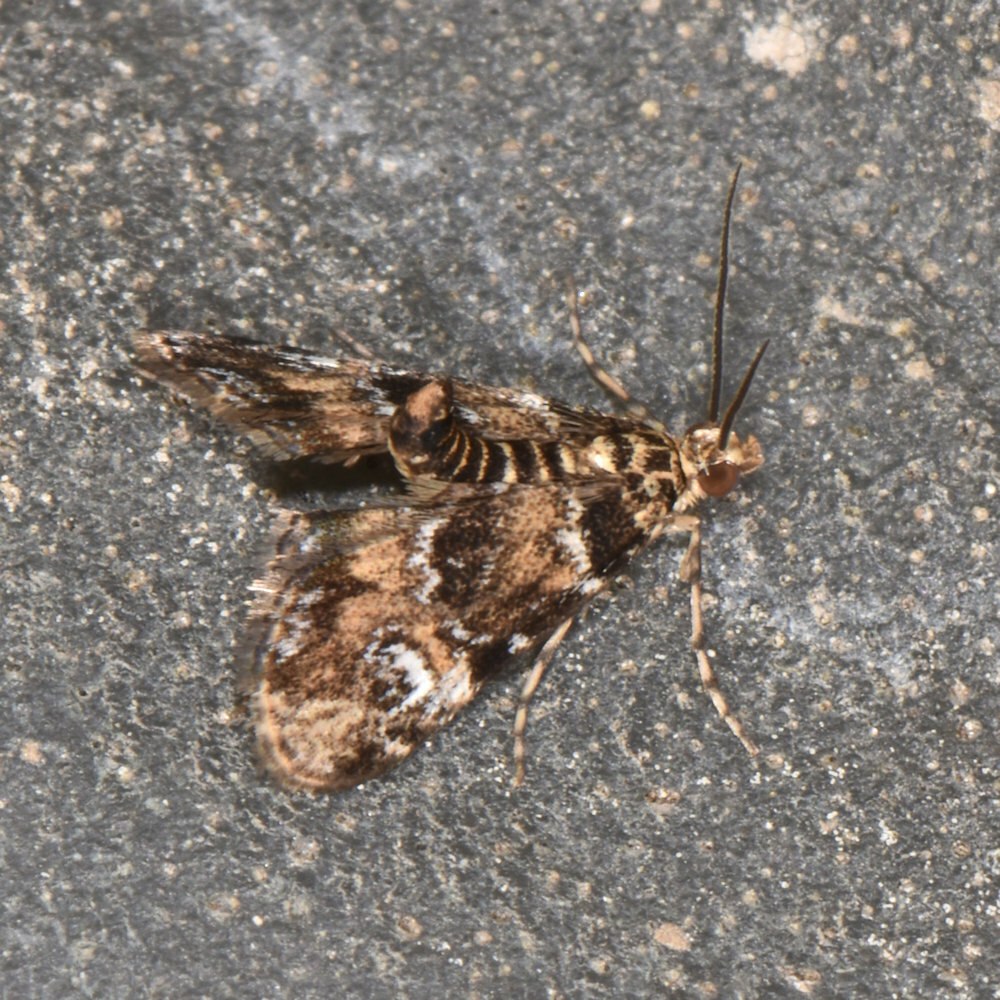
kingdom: Animalia
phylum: Arthropoda
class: Insecta
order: Lepidoptera
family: Crambidae
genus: Elophila
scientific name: Elophila obliteralis
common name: Waterlily leafcutter moth
